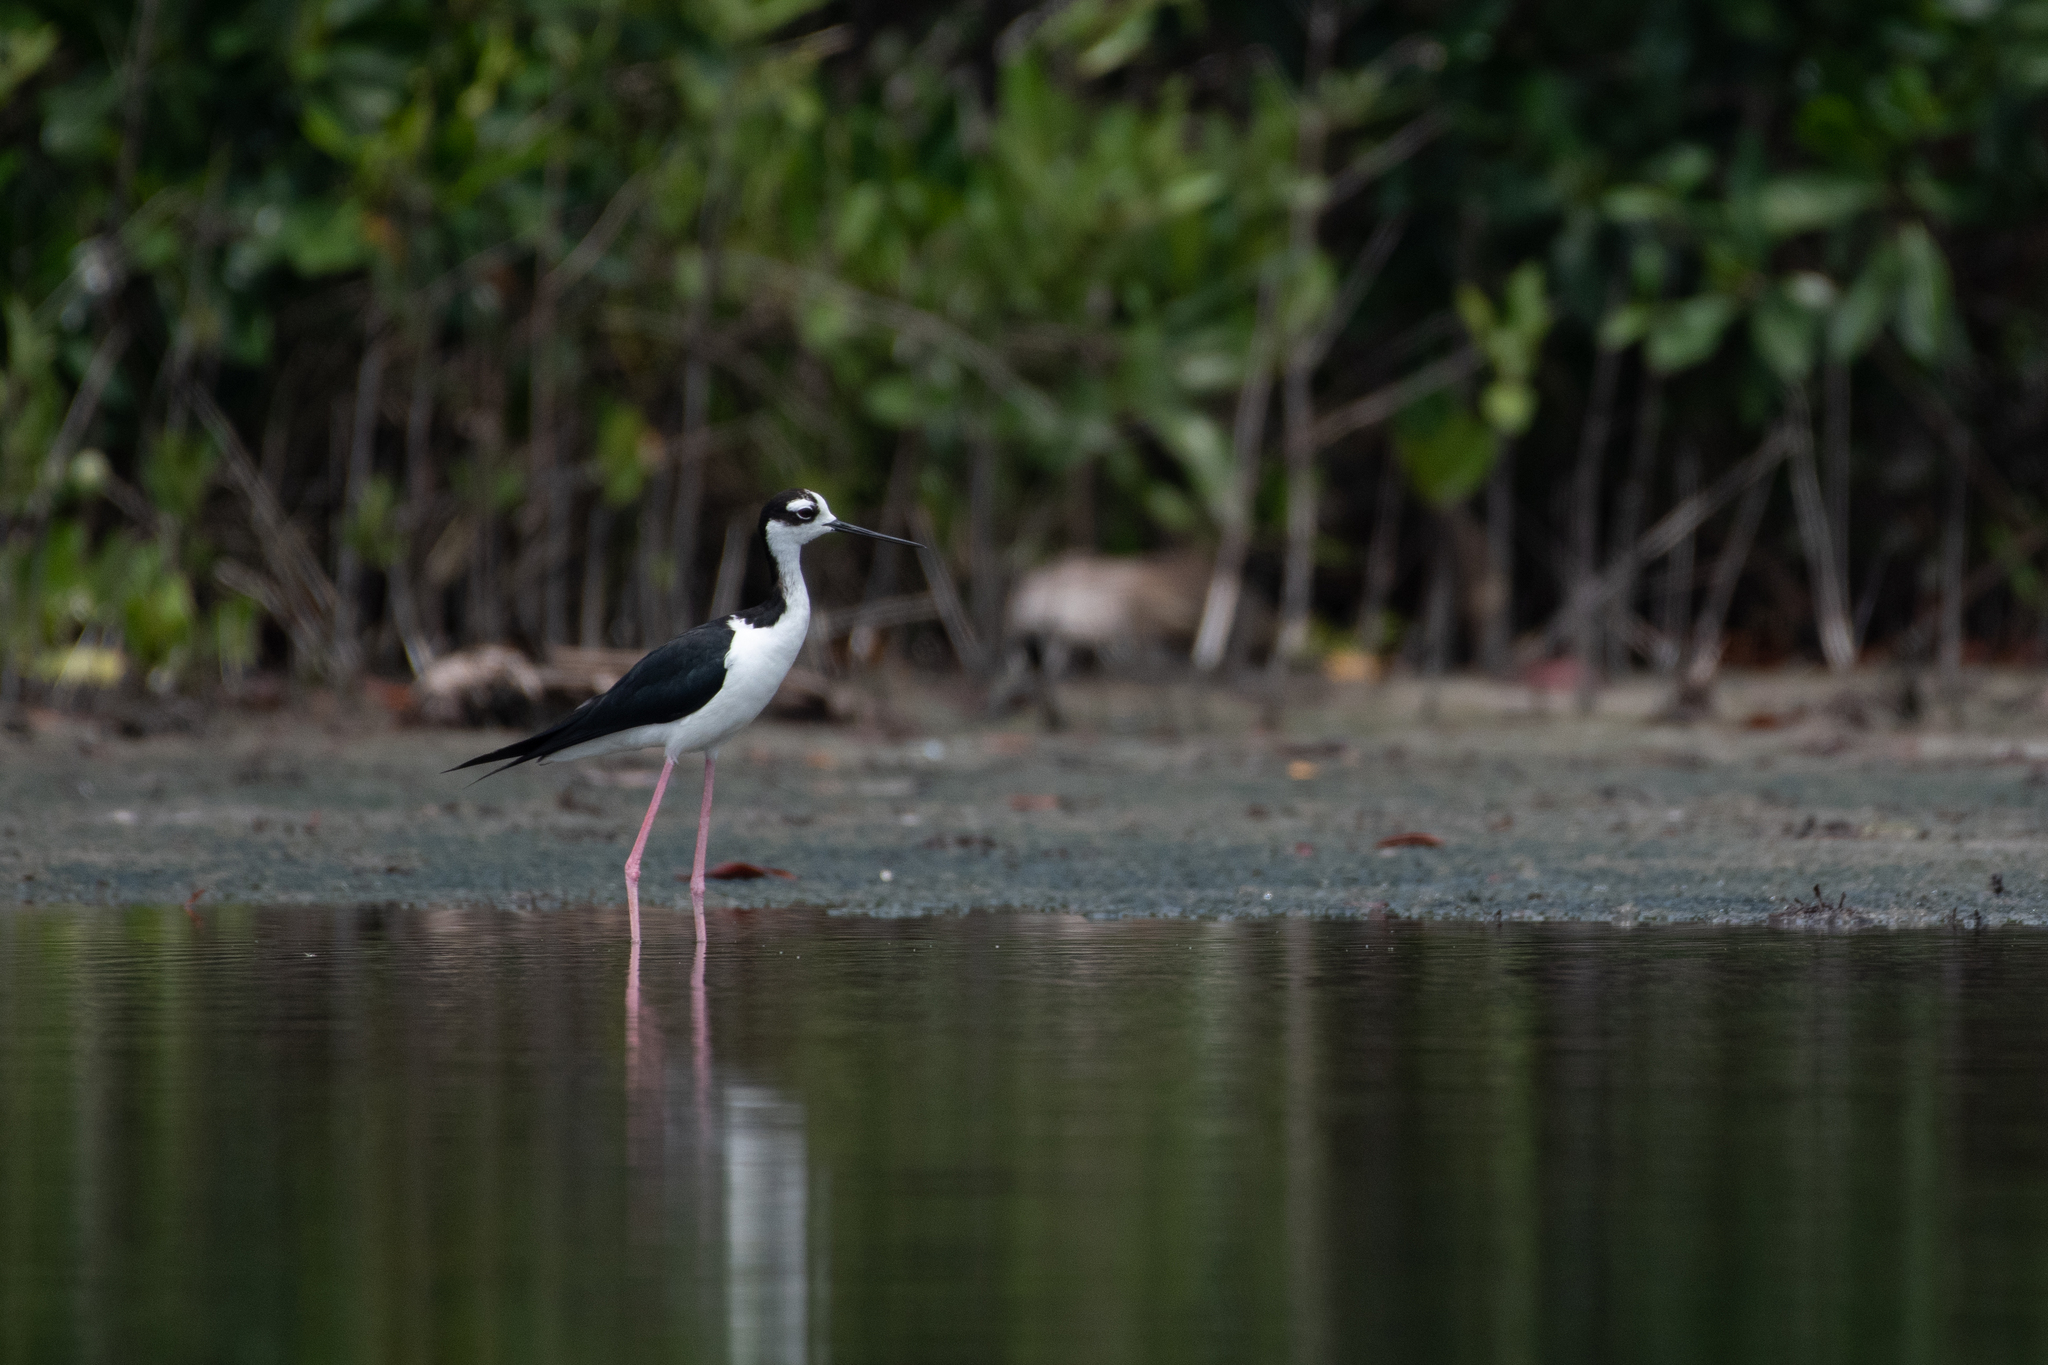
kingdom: Animalia
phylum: Chordata
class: Aves
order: Charadriiformes
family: Recurvirostridae
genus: Himantopus
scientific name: Himantopus mexicanus
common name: Black-necked stilt
